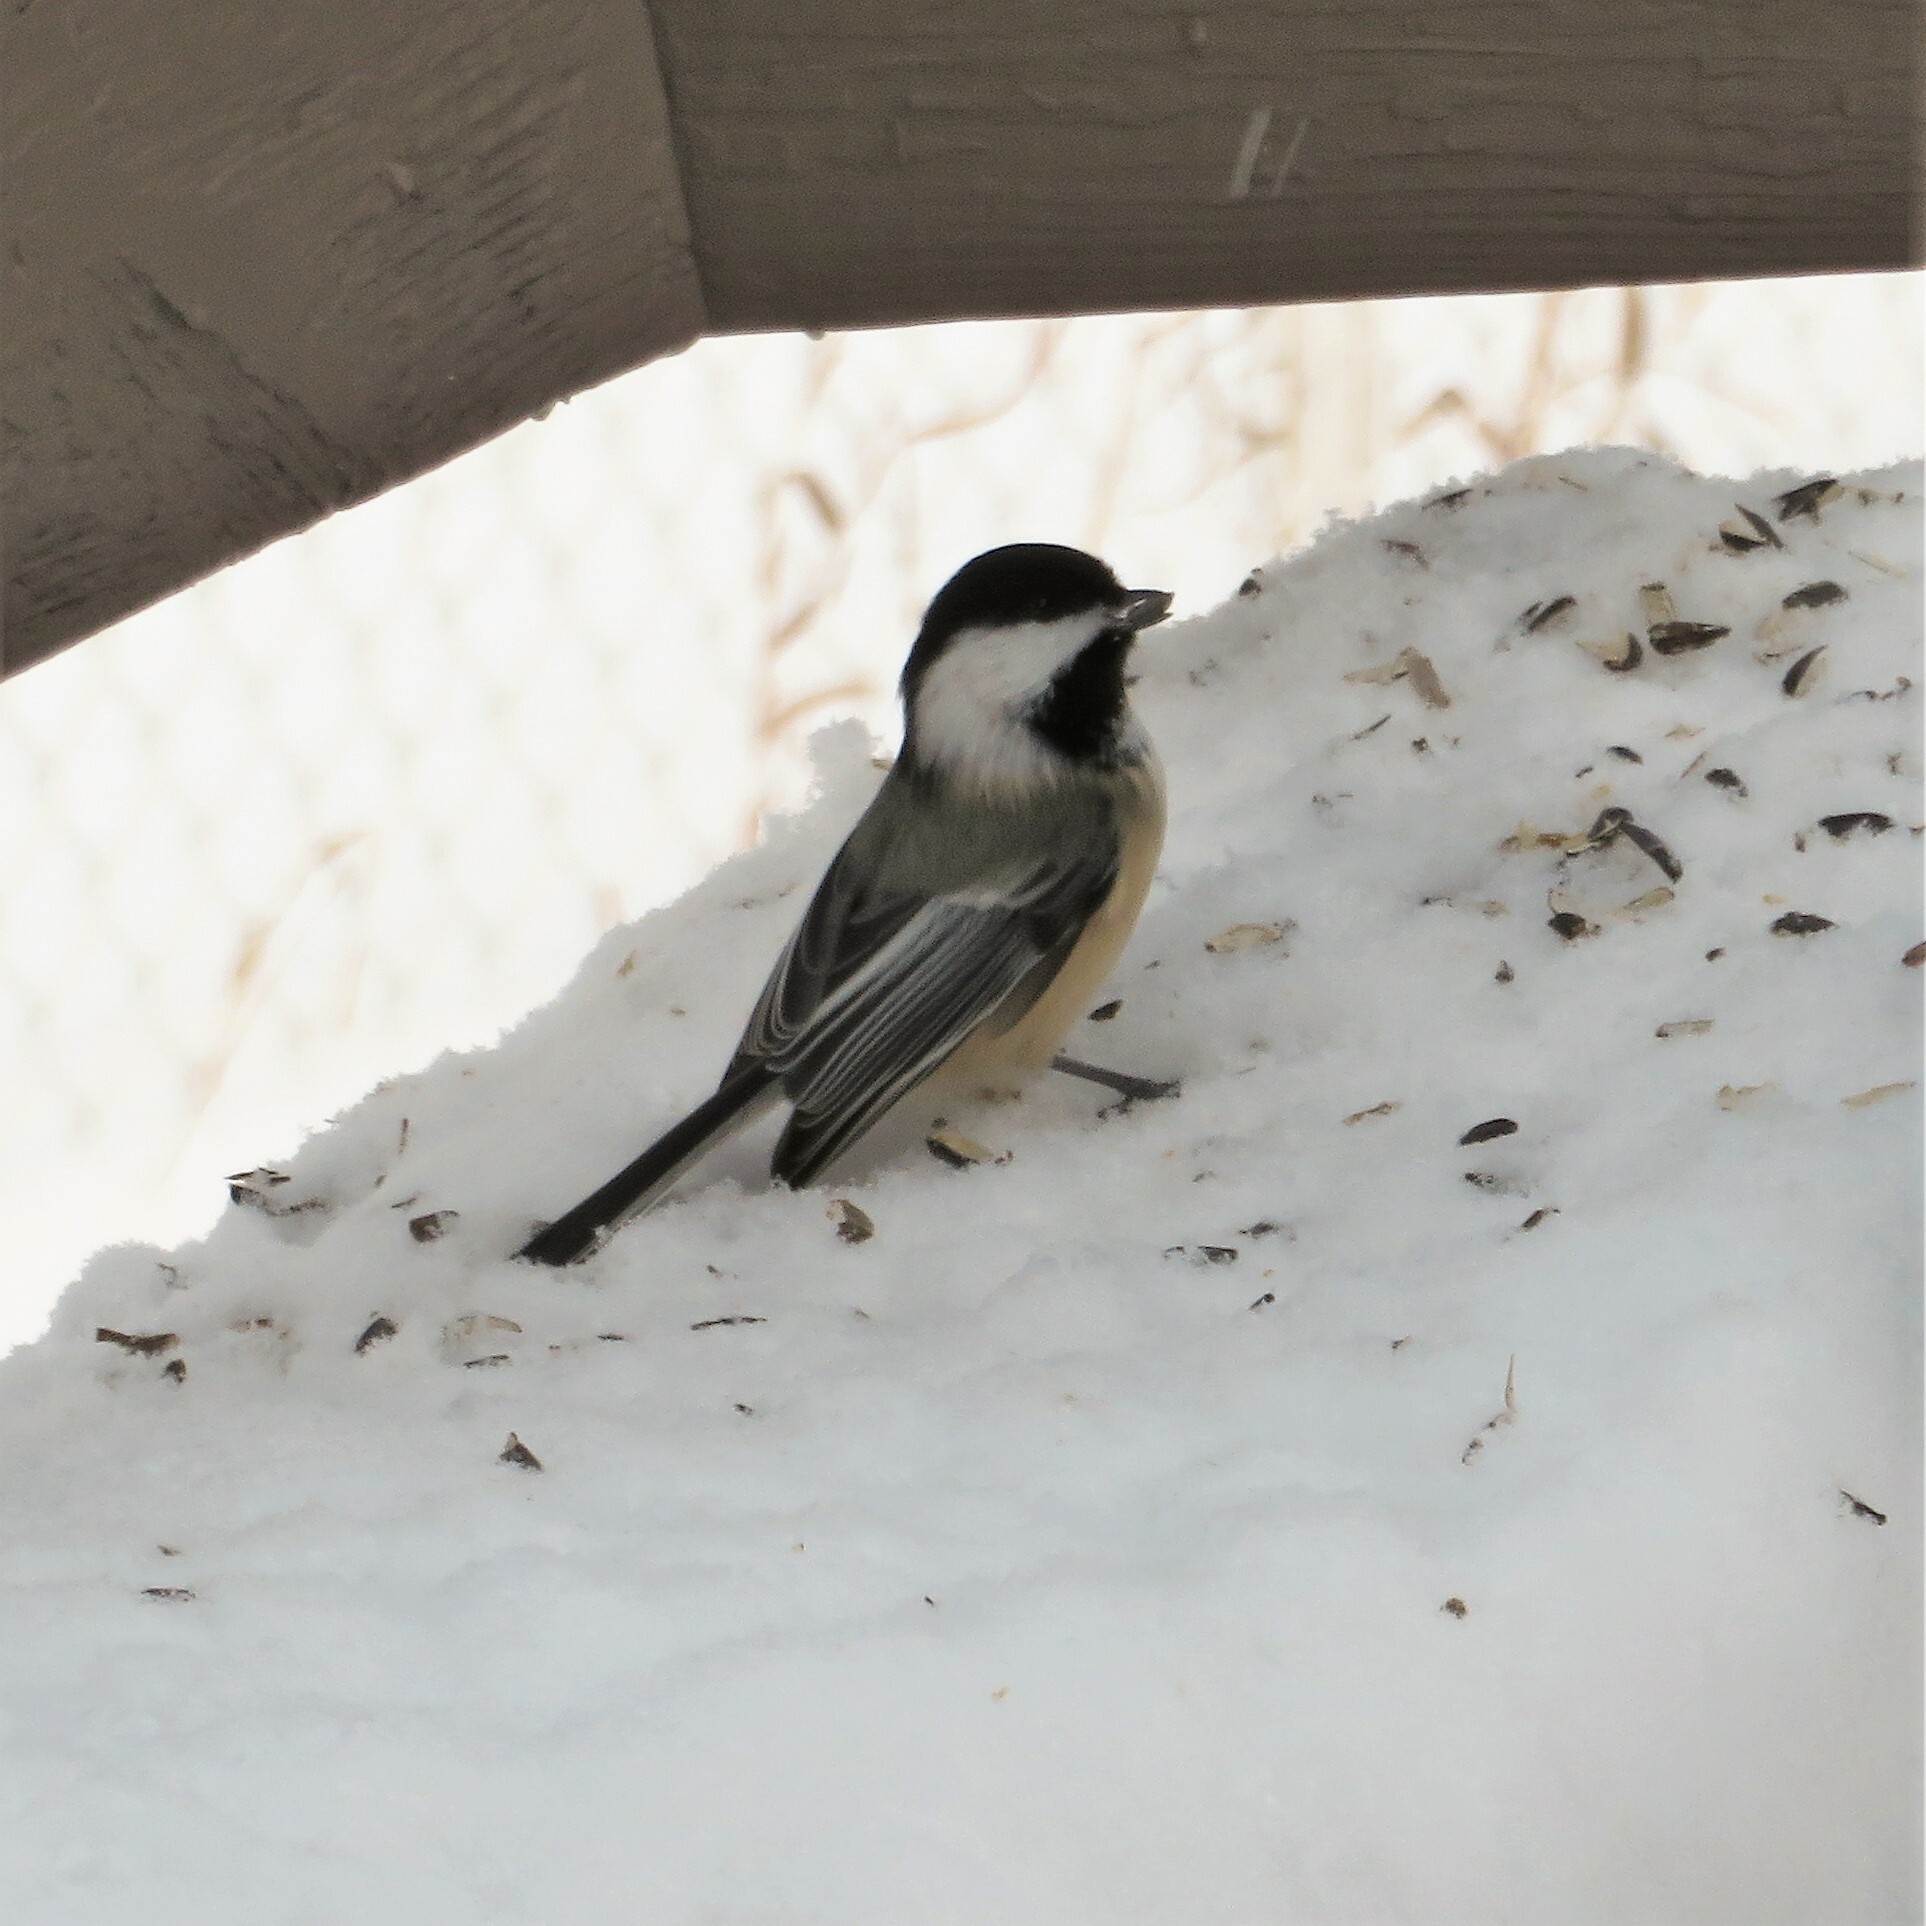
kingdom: Animalia
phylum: Chordata
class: Aves
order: Passeriformes
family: Paridae
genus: Poecile
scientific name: Poecile atricapillus
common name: Black-capped chickadee
